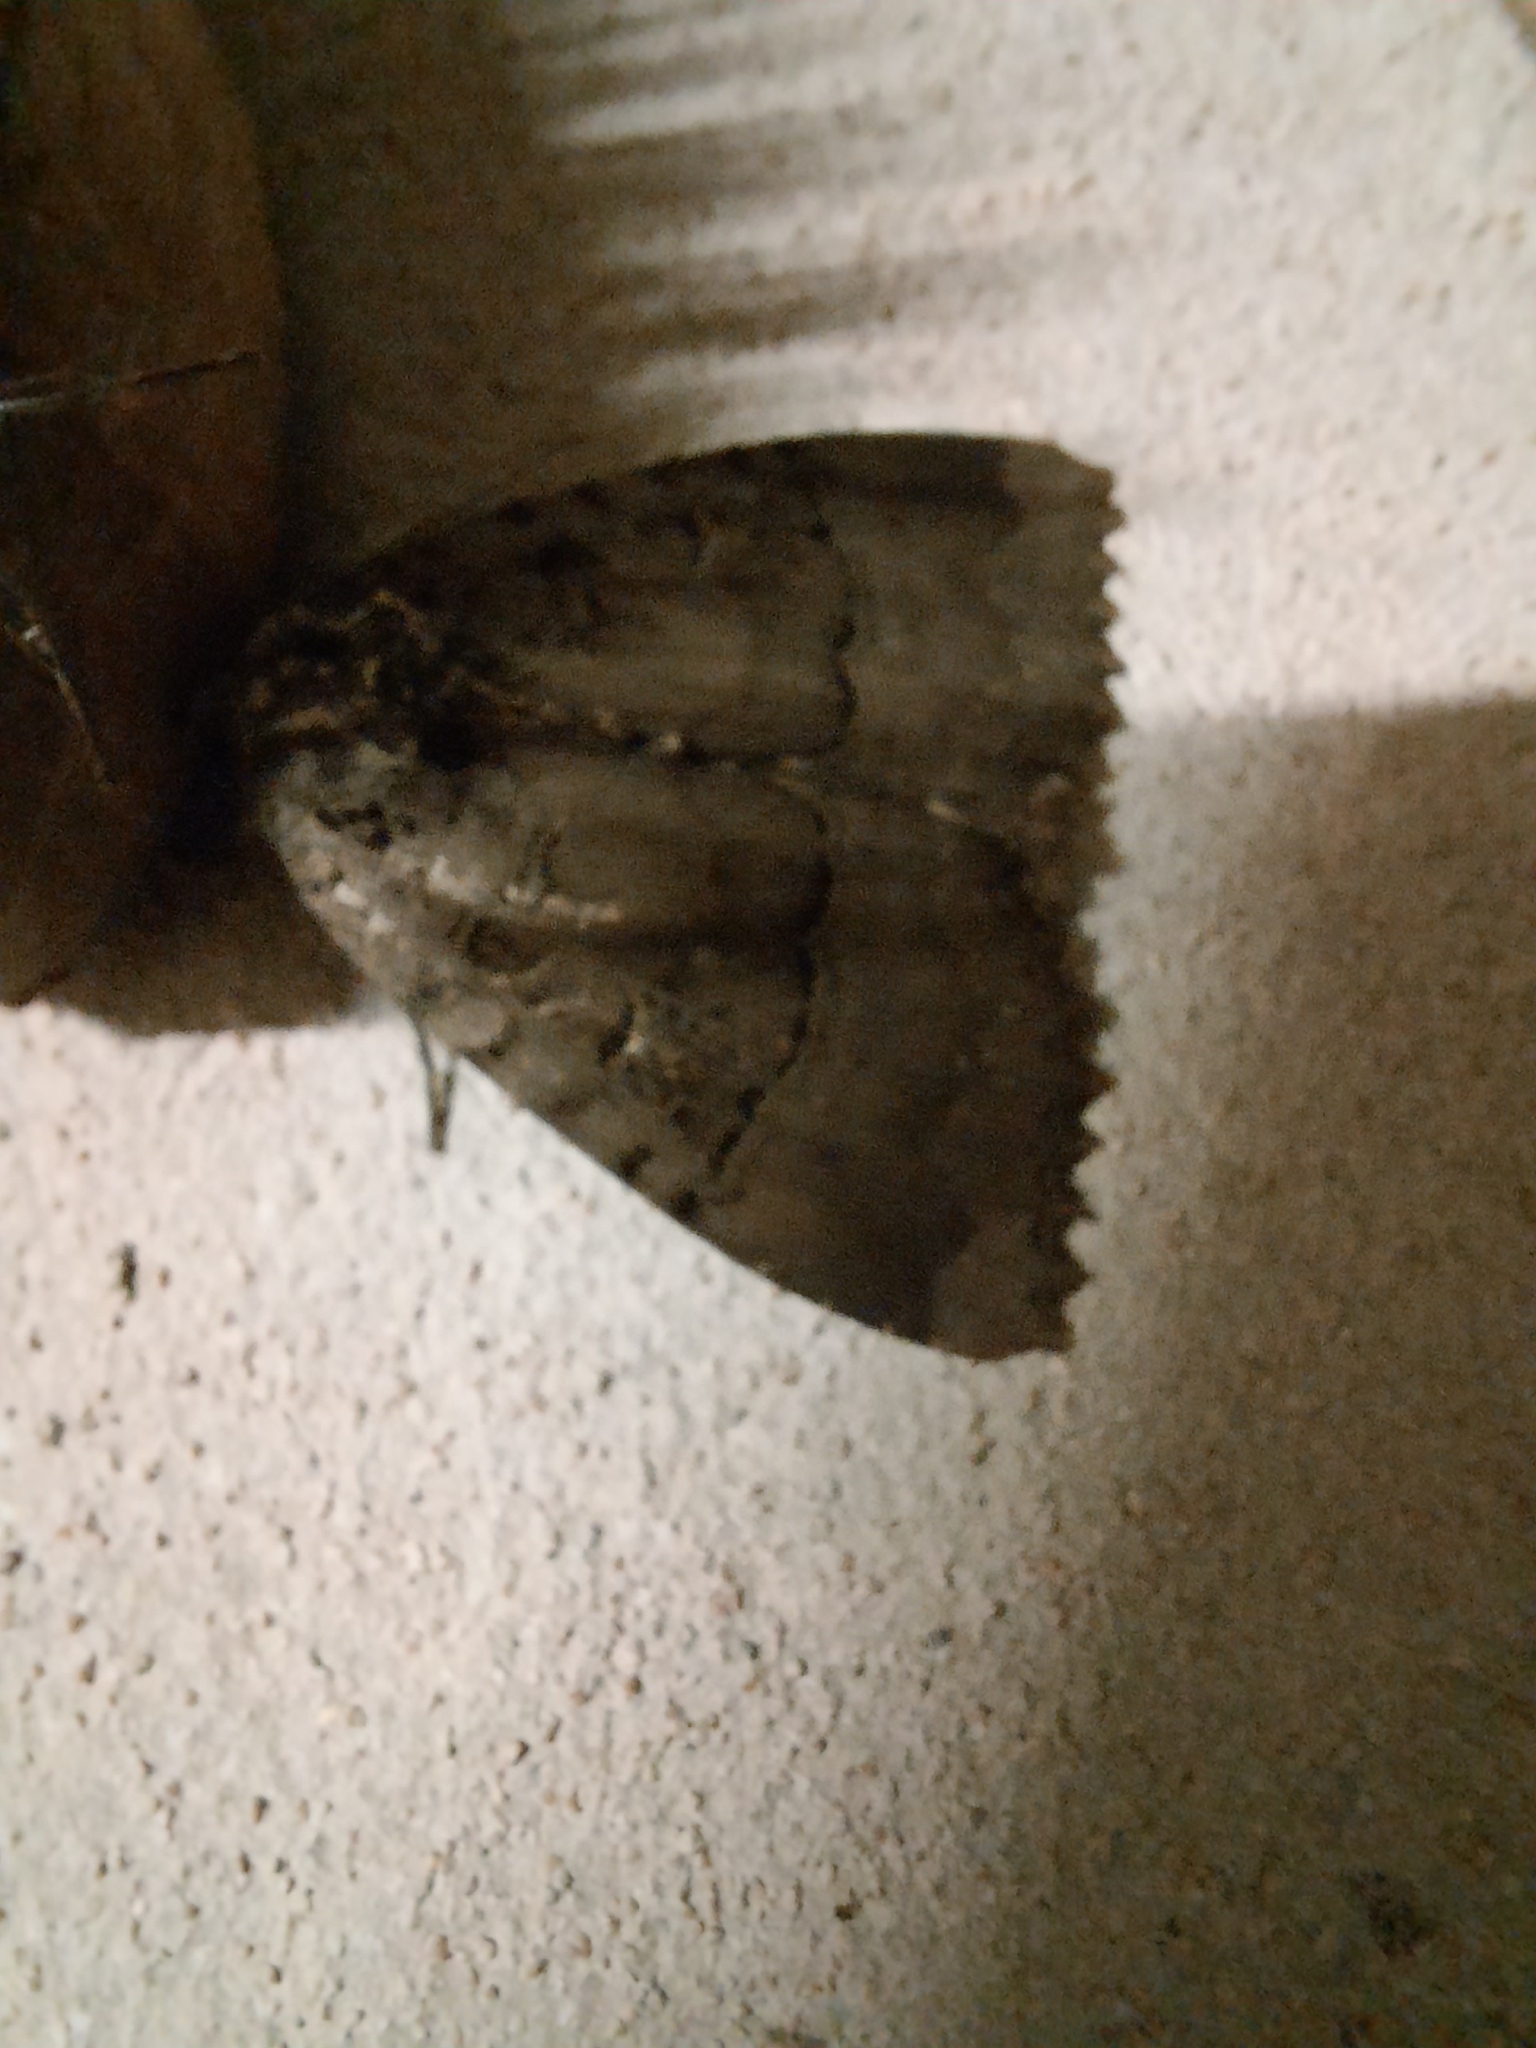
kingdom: Animalia
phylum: Arthropoda
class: Insecta
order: Lepidoptera
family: Noctuidae
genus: Mormo
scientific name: Mormo maura
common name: Old lady
